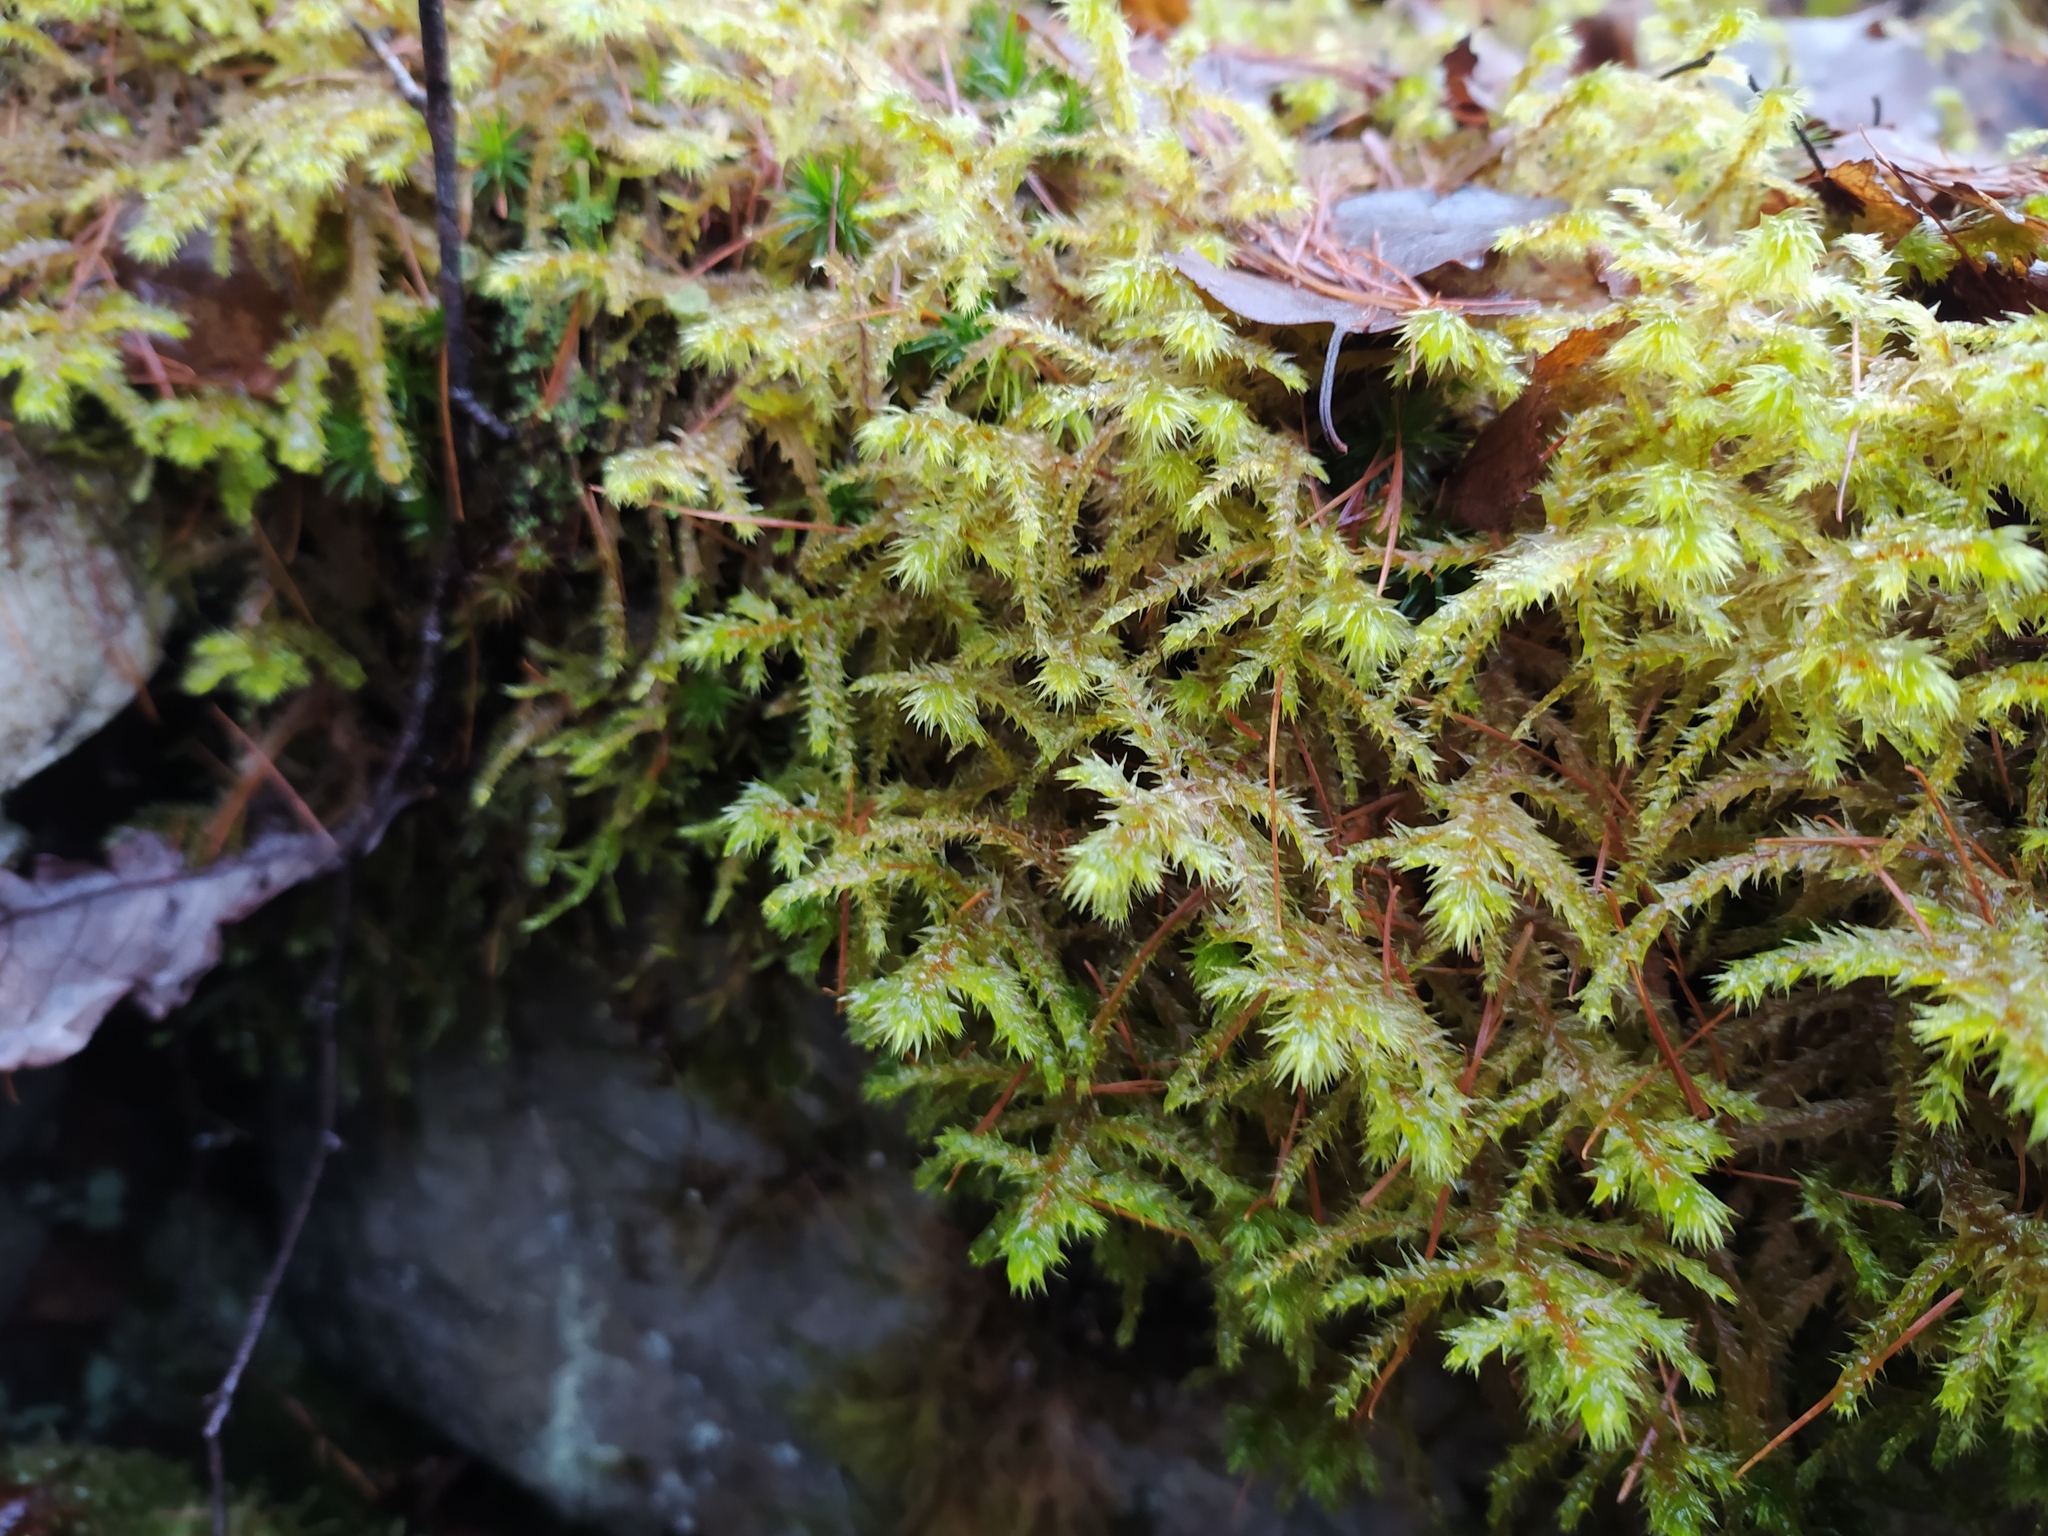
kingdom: Plantae
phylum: Bryophyta
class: Bryopsida
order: Hypnales
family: Hylocomiaceae
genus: Hylocomiadelphus
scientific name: Hylocomiadelphus triquetrus
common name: Rough goose neck moss
